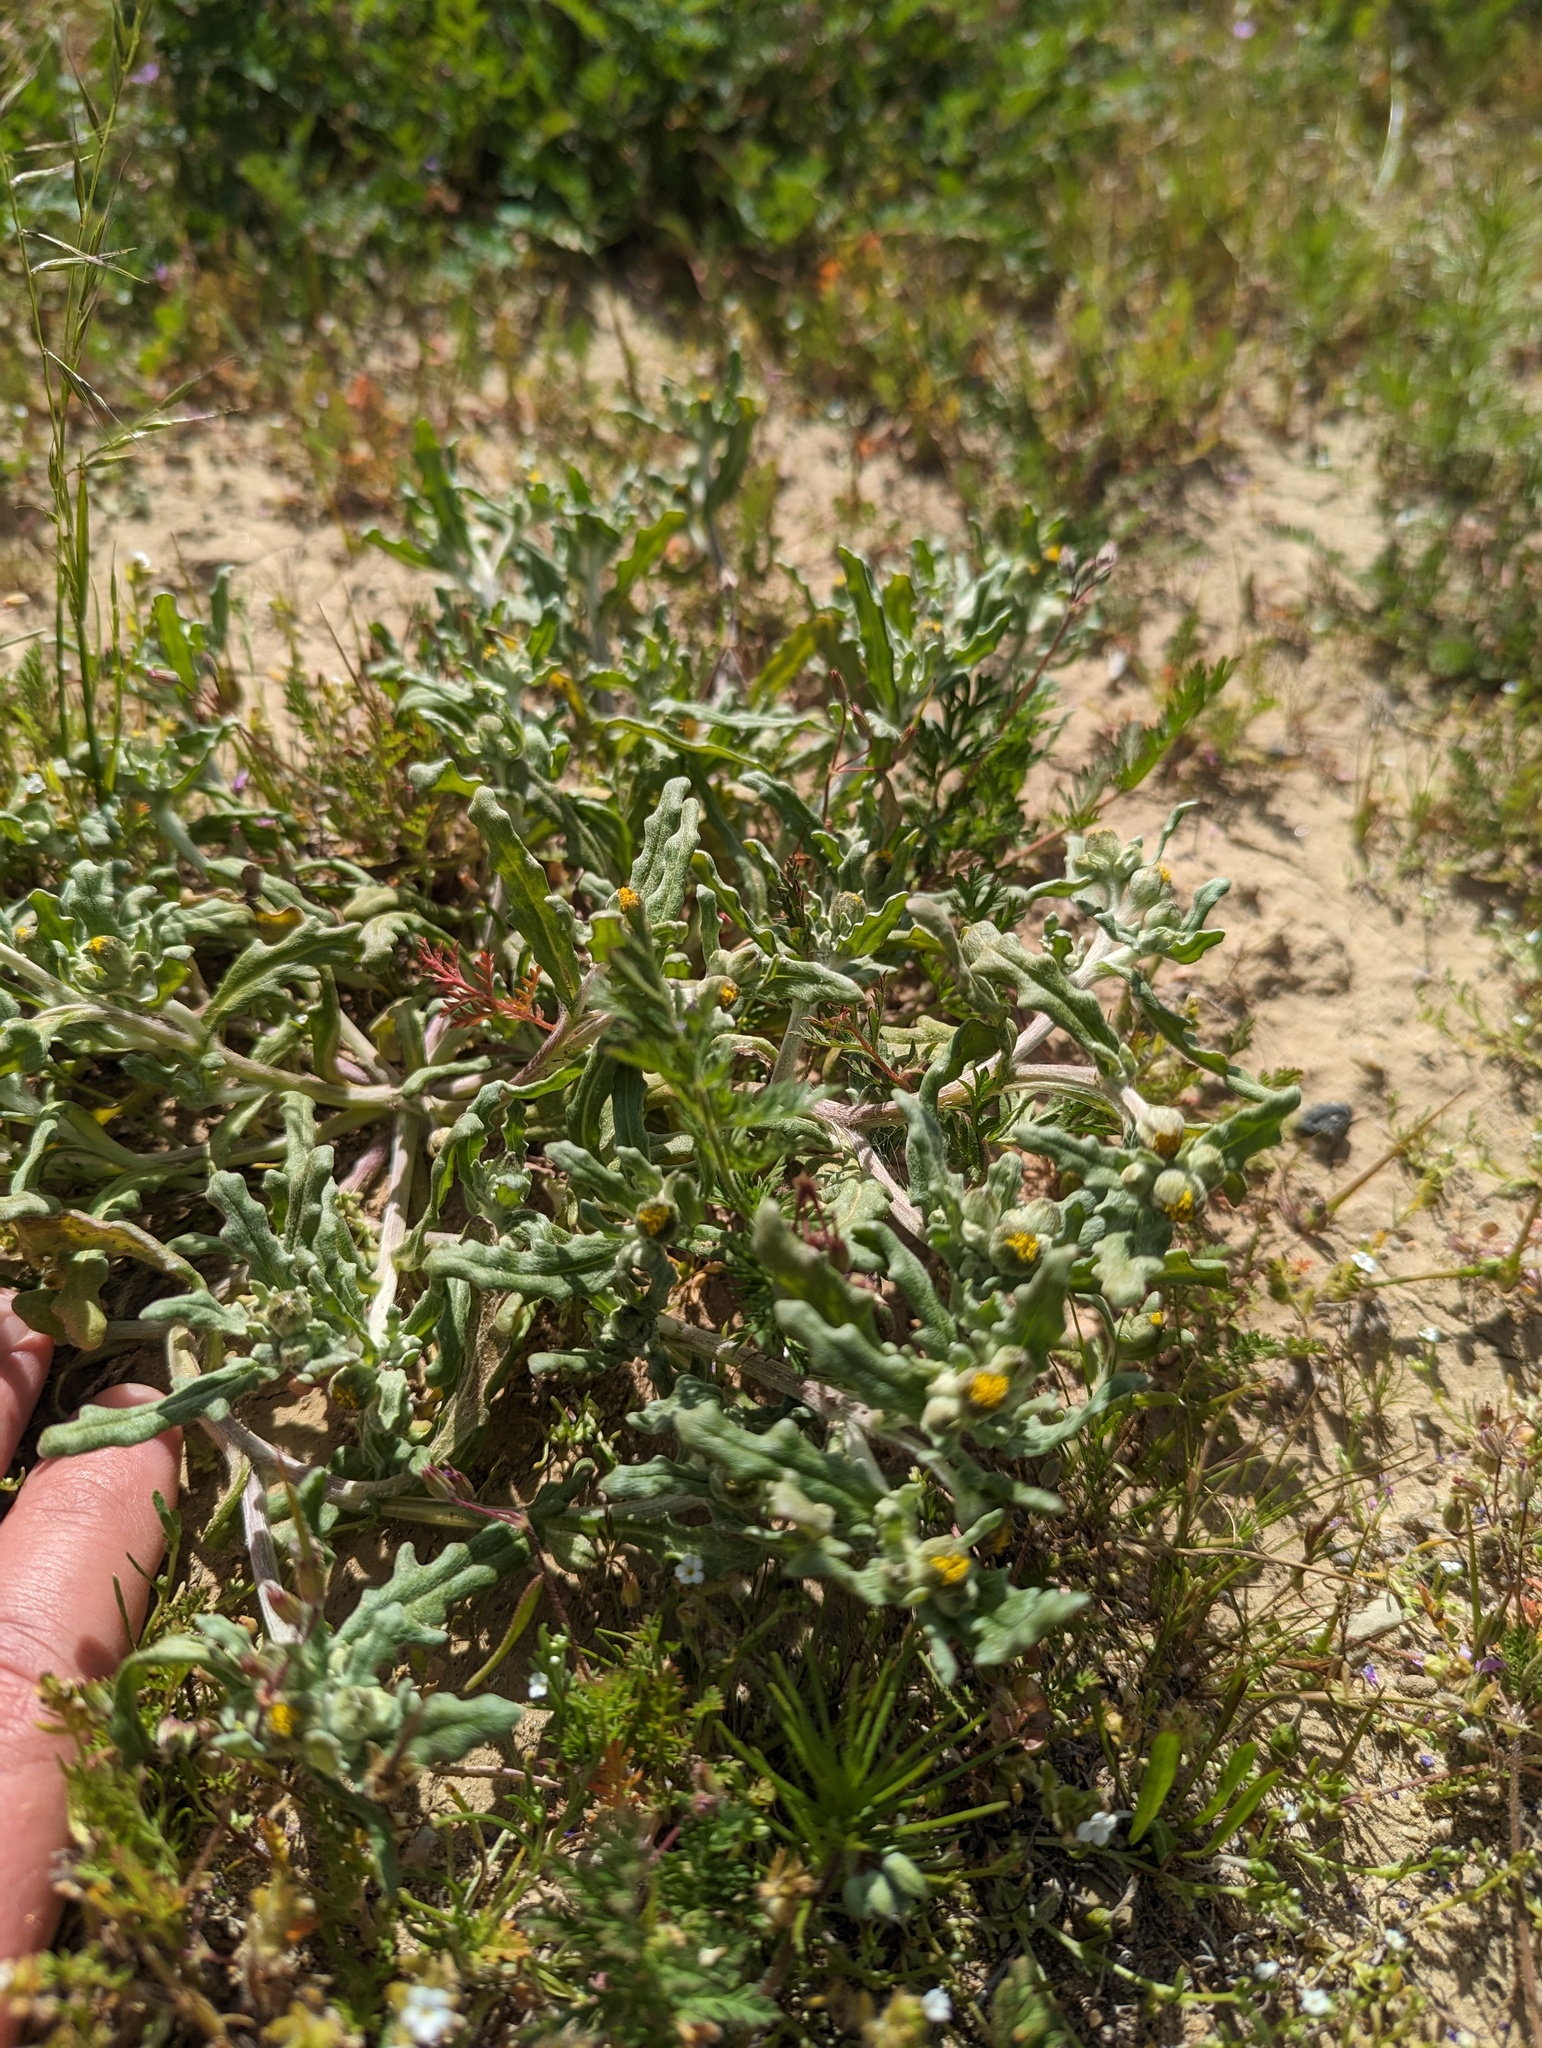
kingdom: Plantae
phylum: Tracheophyta
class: Magnoliopsida
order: Asterales
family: Asteraceae
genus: Monolopia
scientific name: Monolopia congdonii
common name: San joaquin woolly-threads
